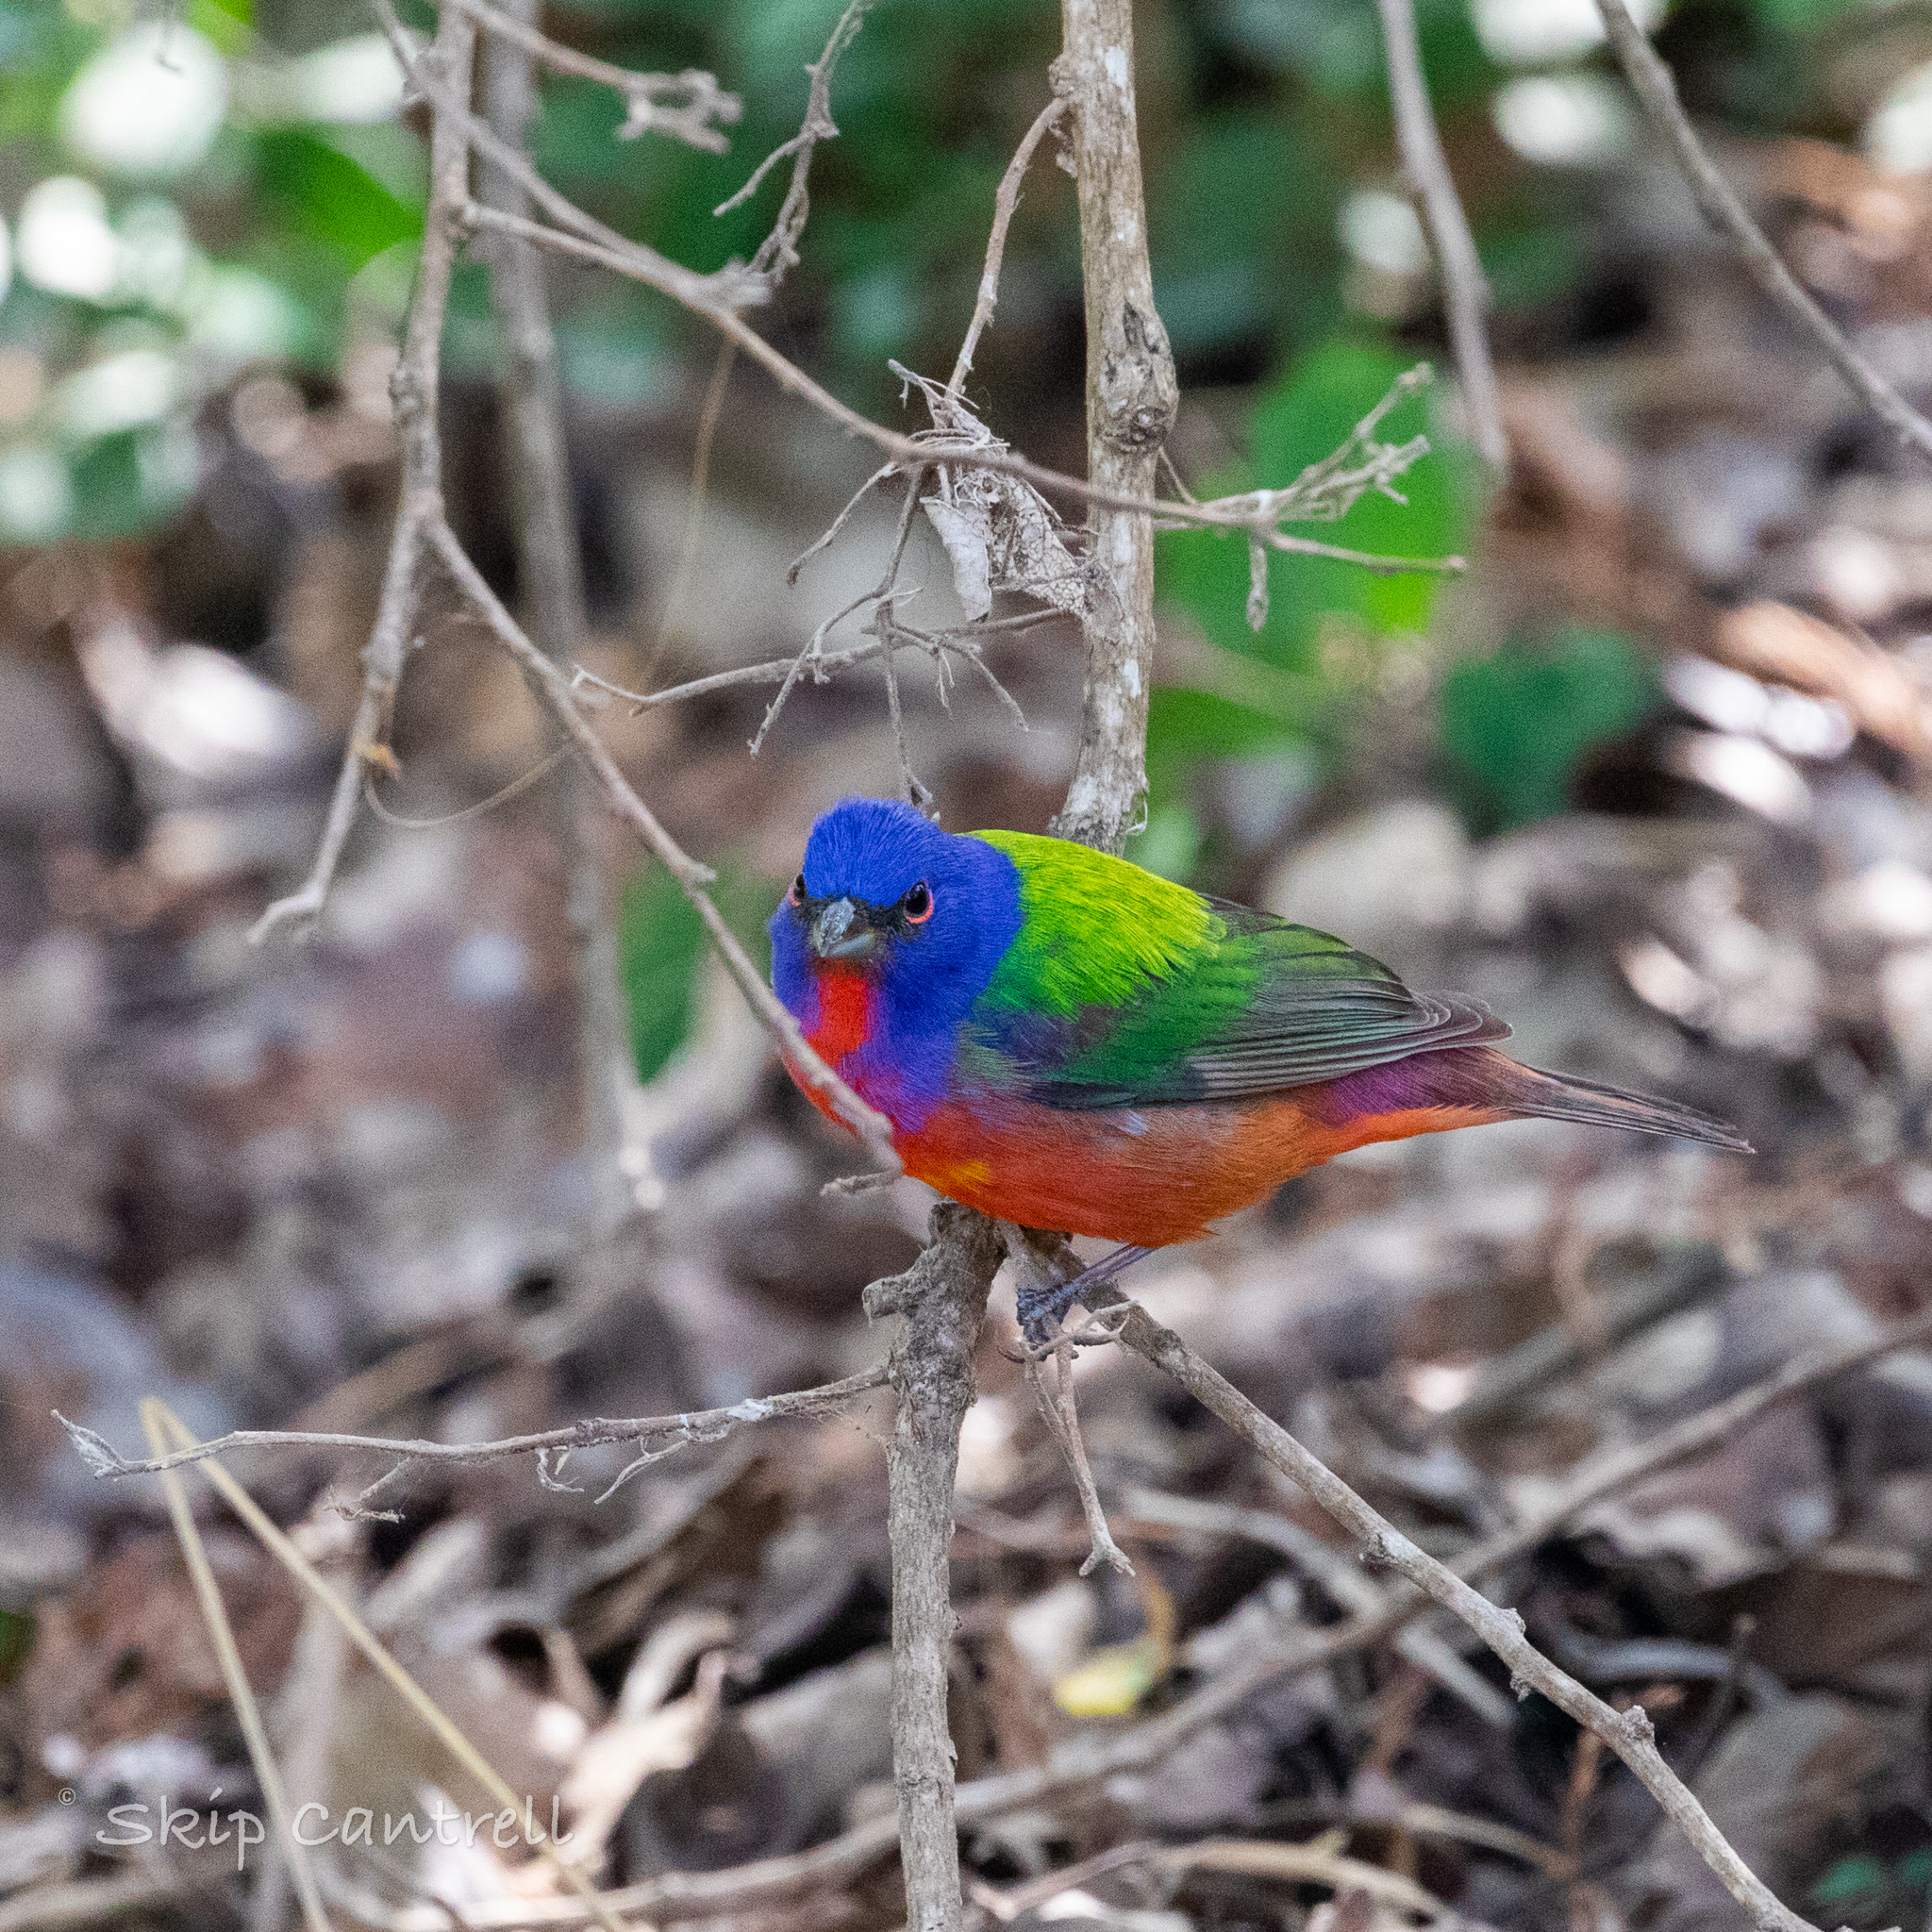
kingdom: Animalia
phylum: Chordata
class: Aves
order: Passeriformes
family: Cardinalidae
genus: Passerina
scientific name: Passerina ciris
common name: Painted bunting
